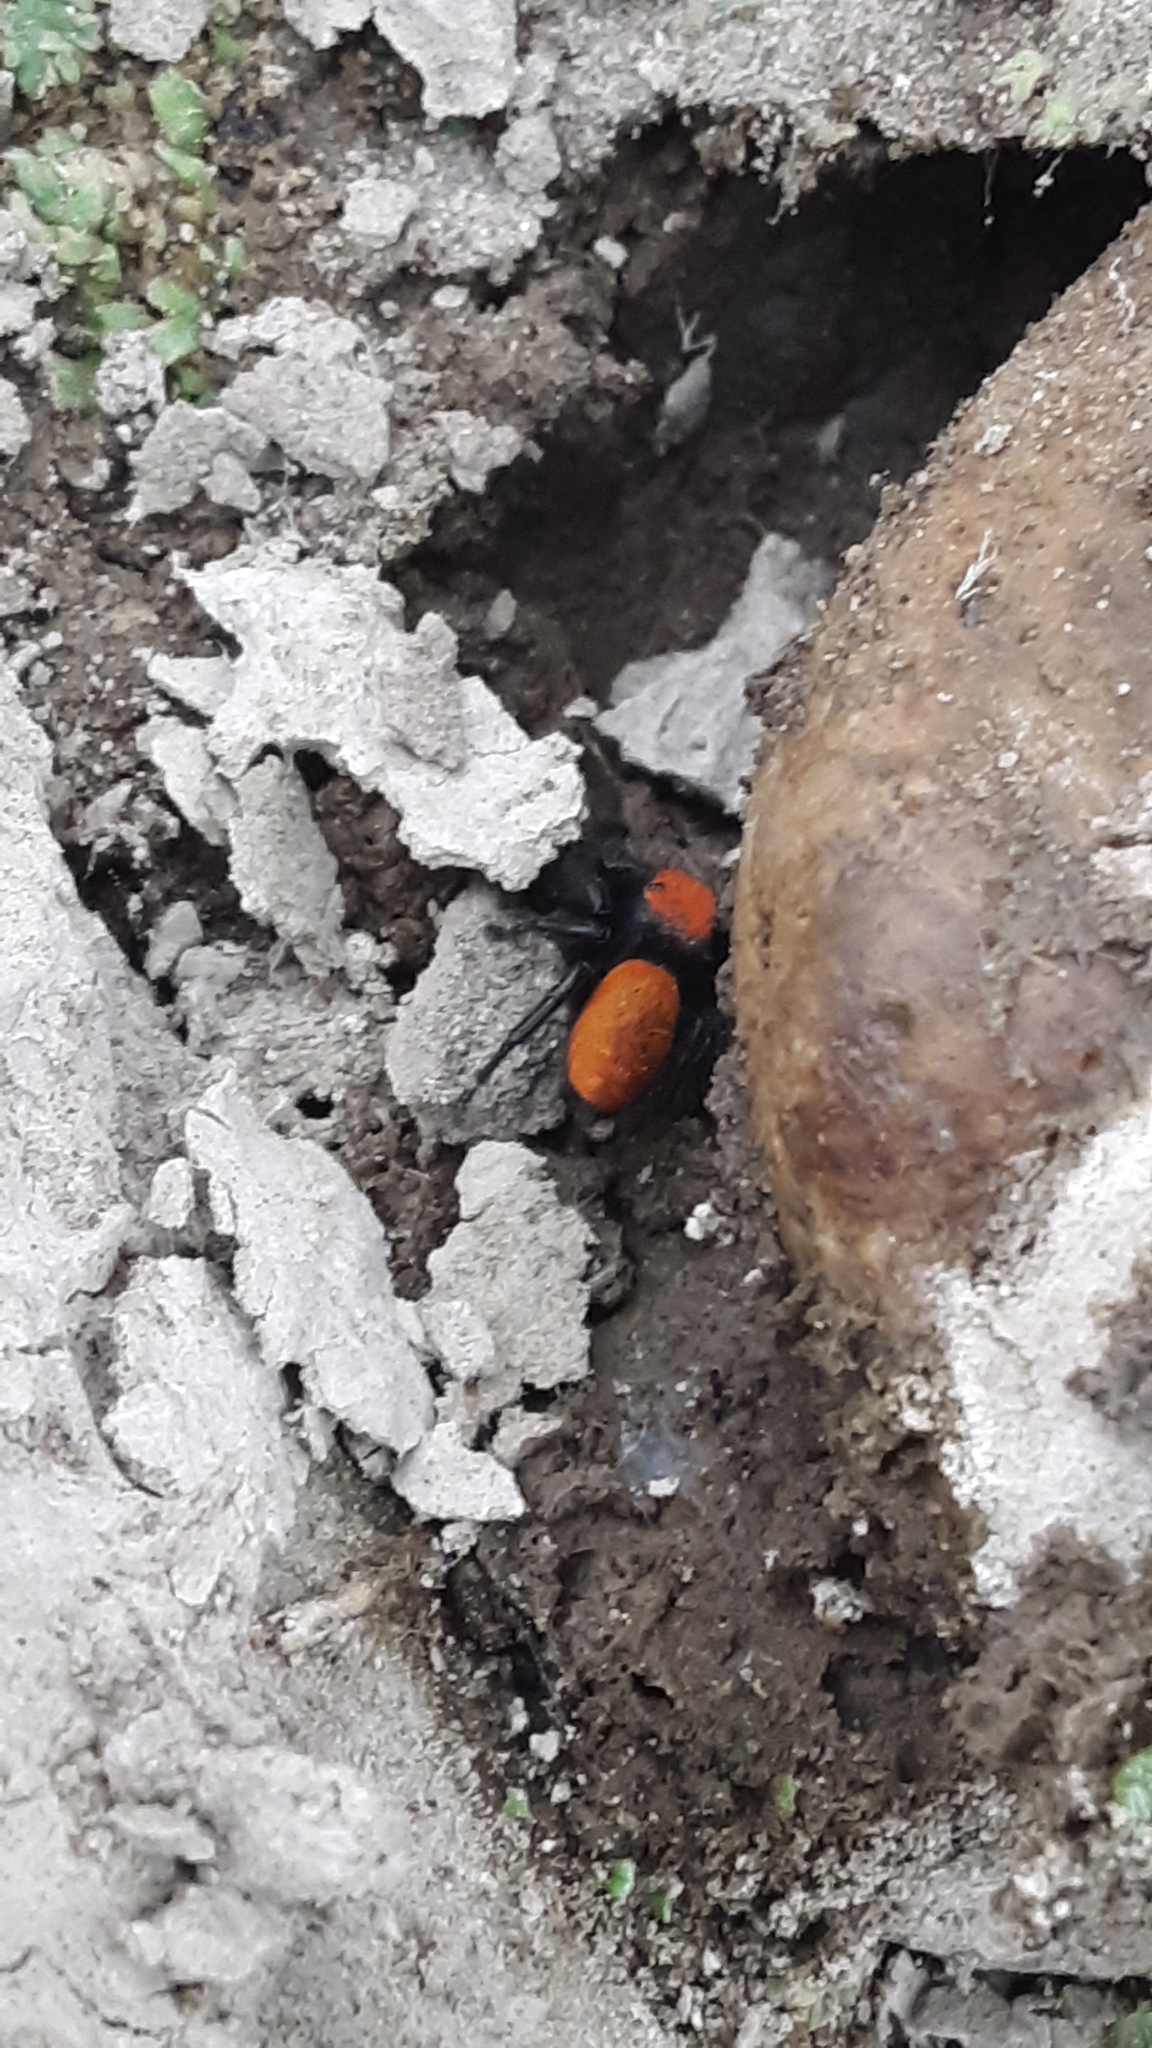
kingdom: Animalia
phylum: Arthropoda
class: Arachnida
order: Araneae
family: Salticidae
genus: Phidippus
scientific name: Phidippus apacheanus
